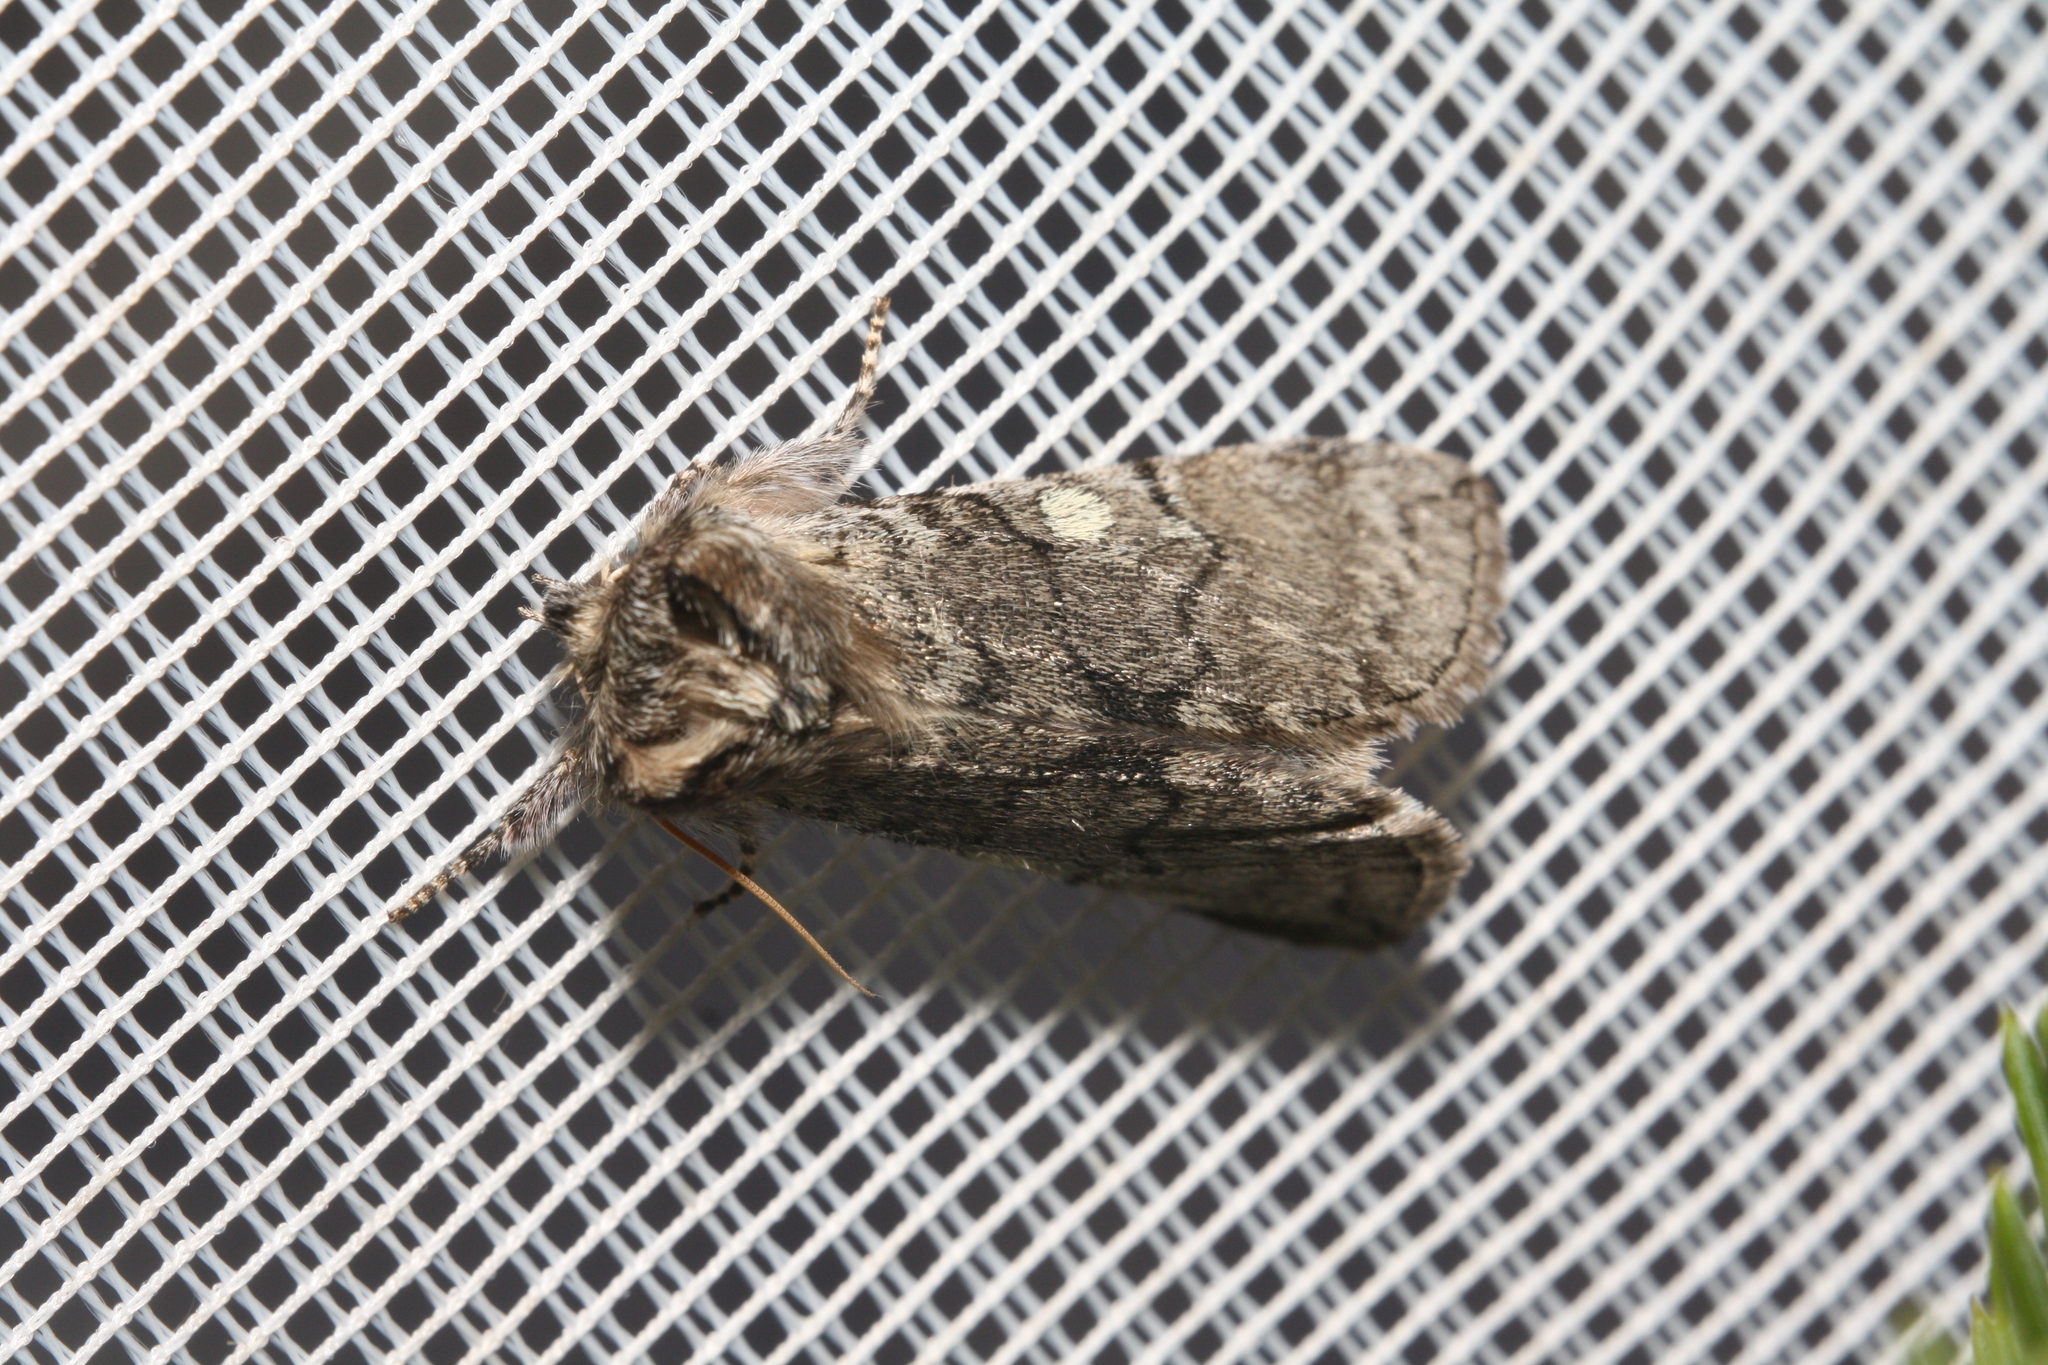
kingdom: Animalia
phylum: Arthropoda
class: Insecta
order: Lepidoptera
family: Drepanidae
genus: Achlya
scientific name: Achlya flavicornis
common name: Yellow horned
